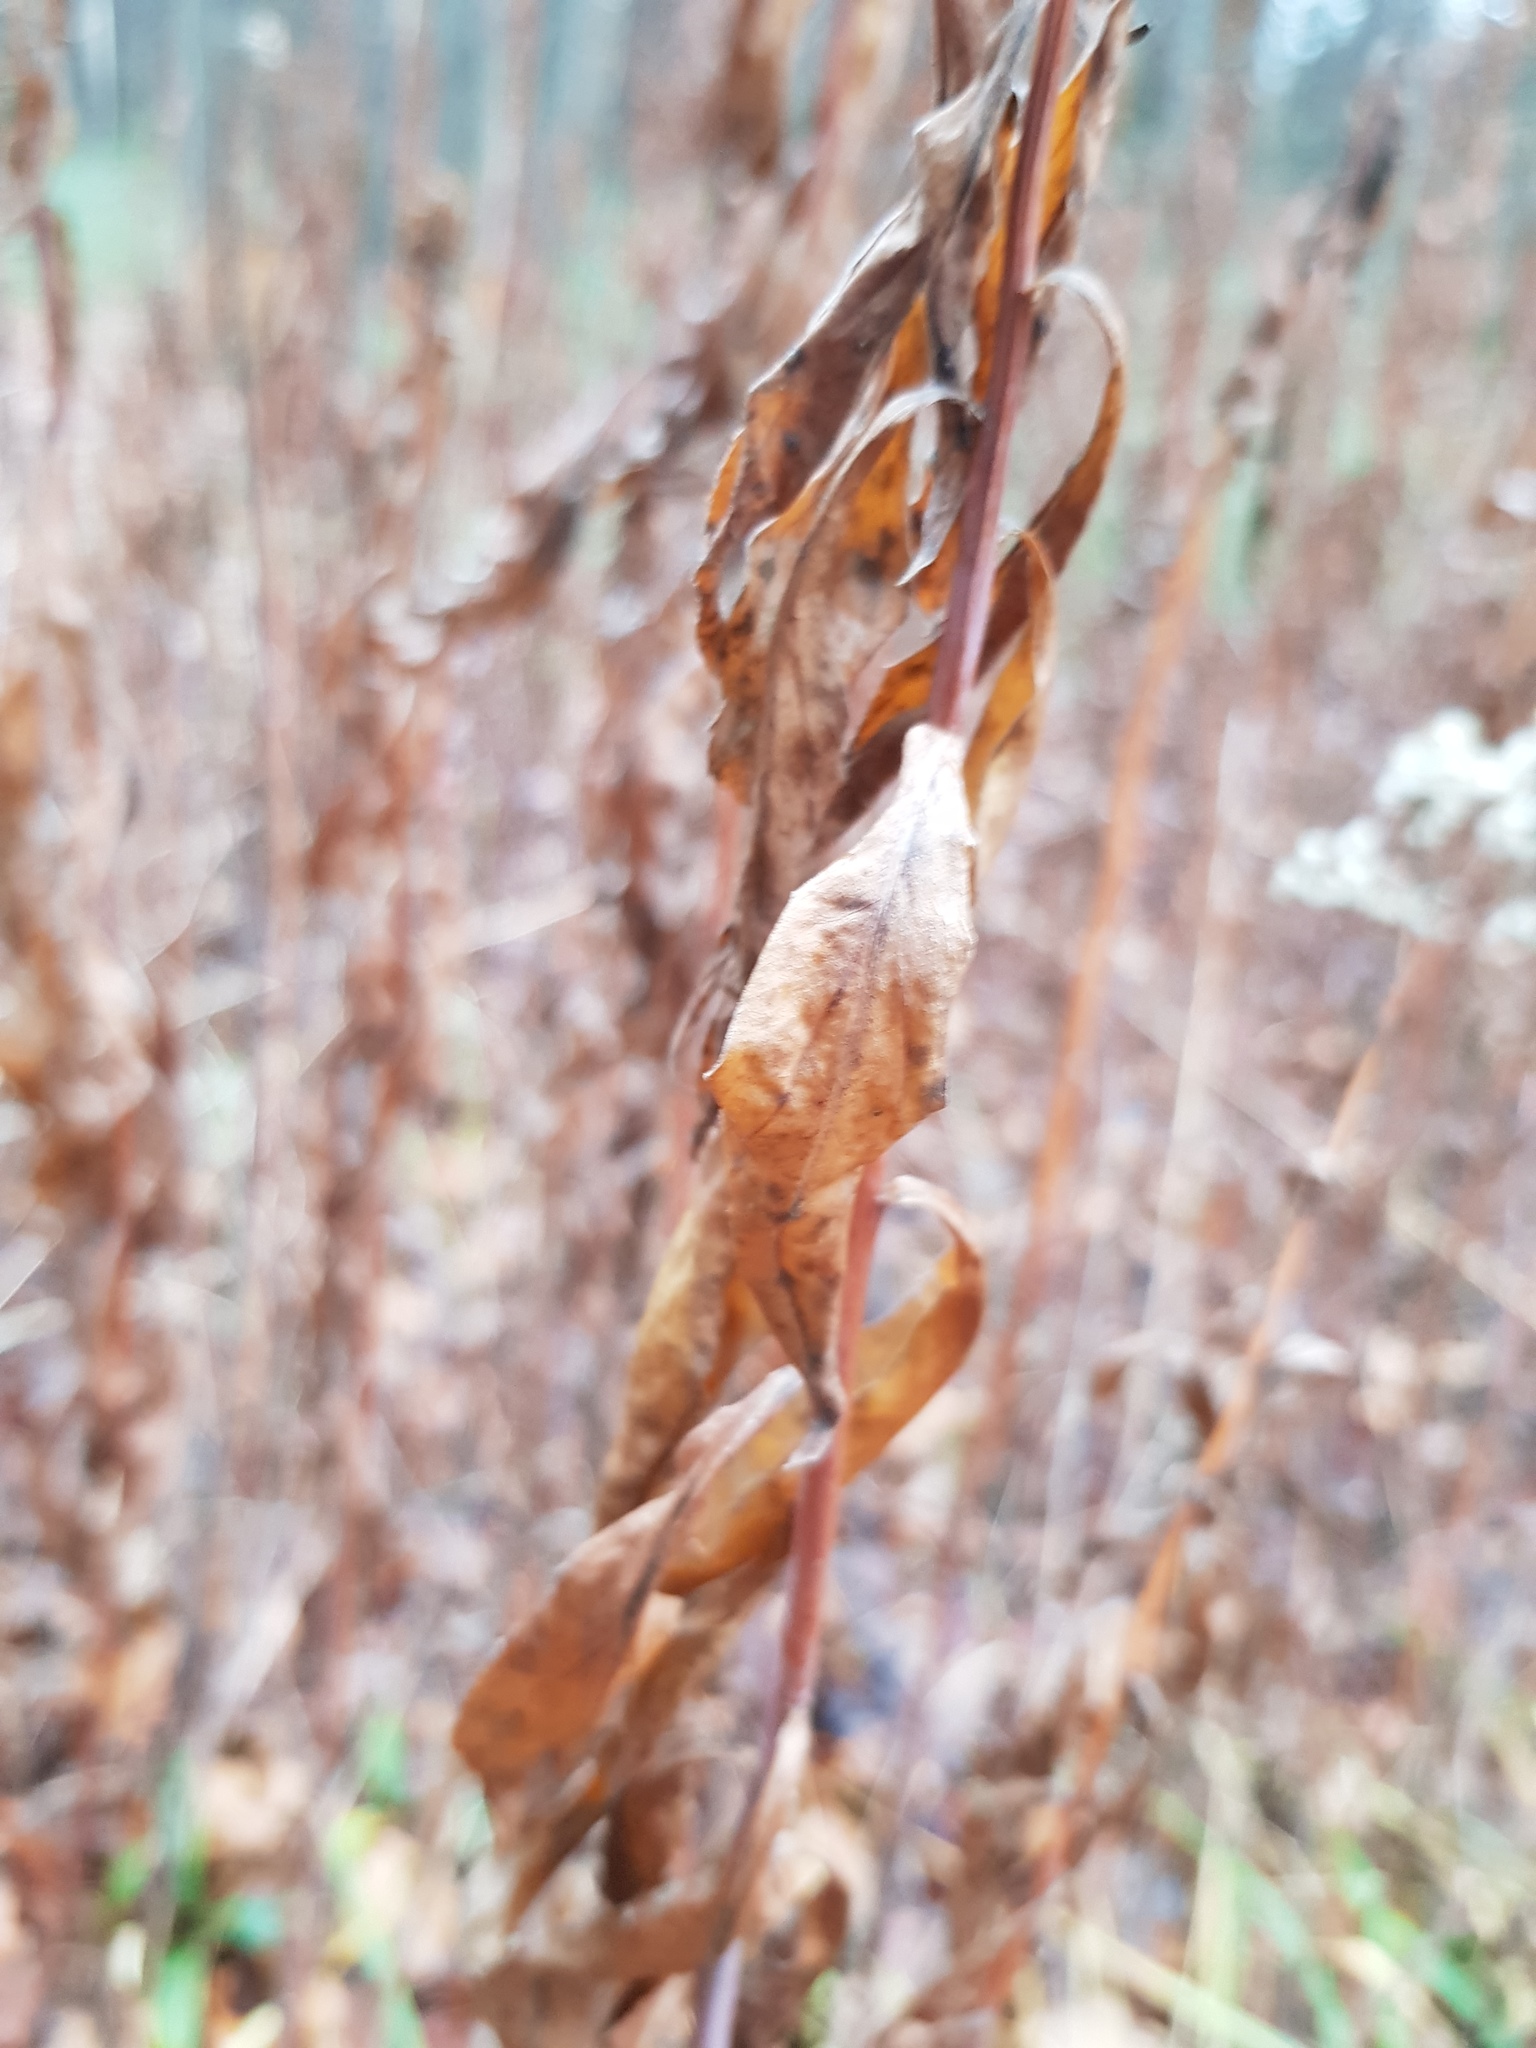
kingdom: Plantae
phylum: Tracheophyta
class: Magnoliopsida
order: Asterales
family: Asteraceae
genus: Solidago
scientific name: Solidago gigantea
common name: Giant goldenrod
